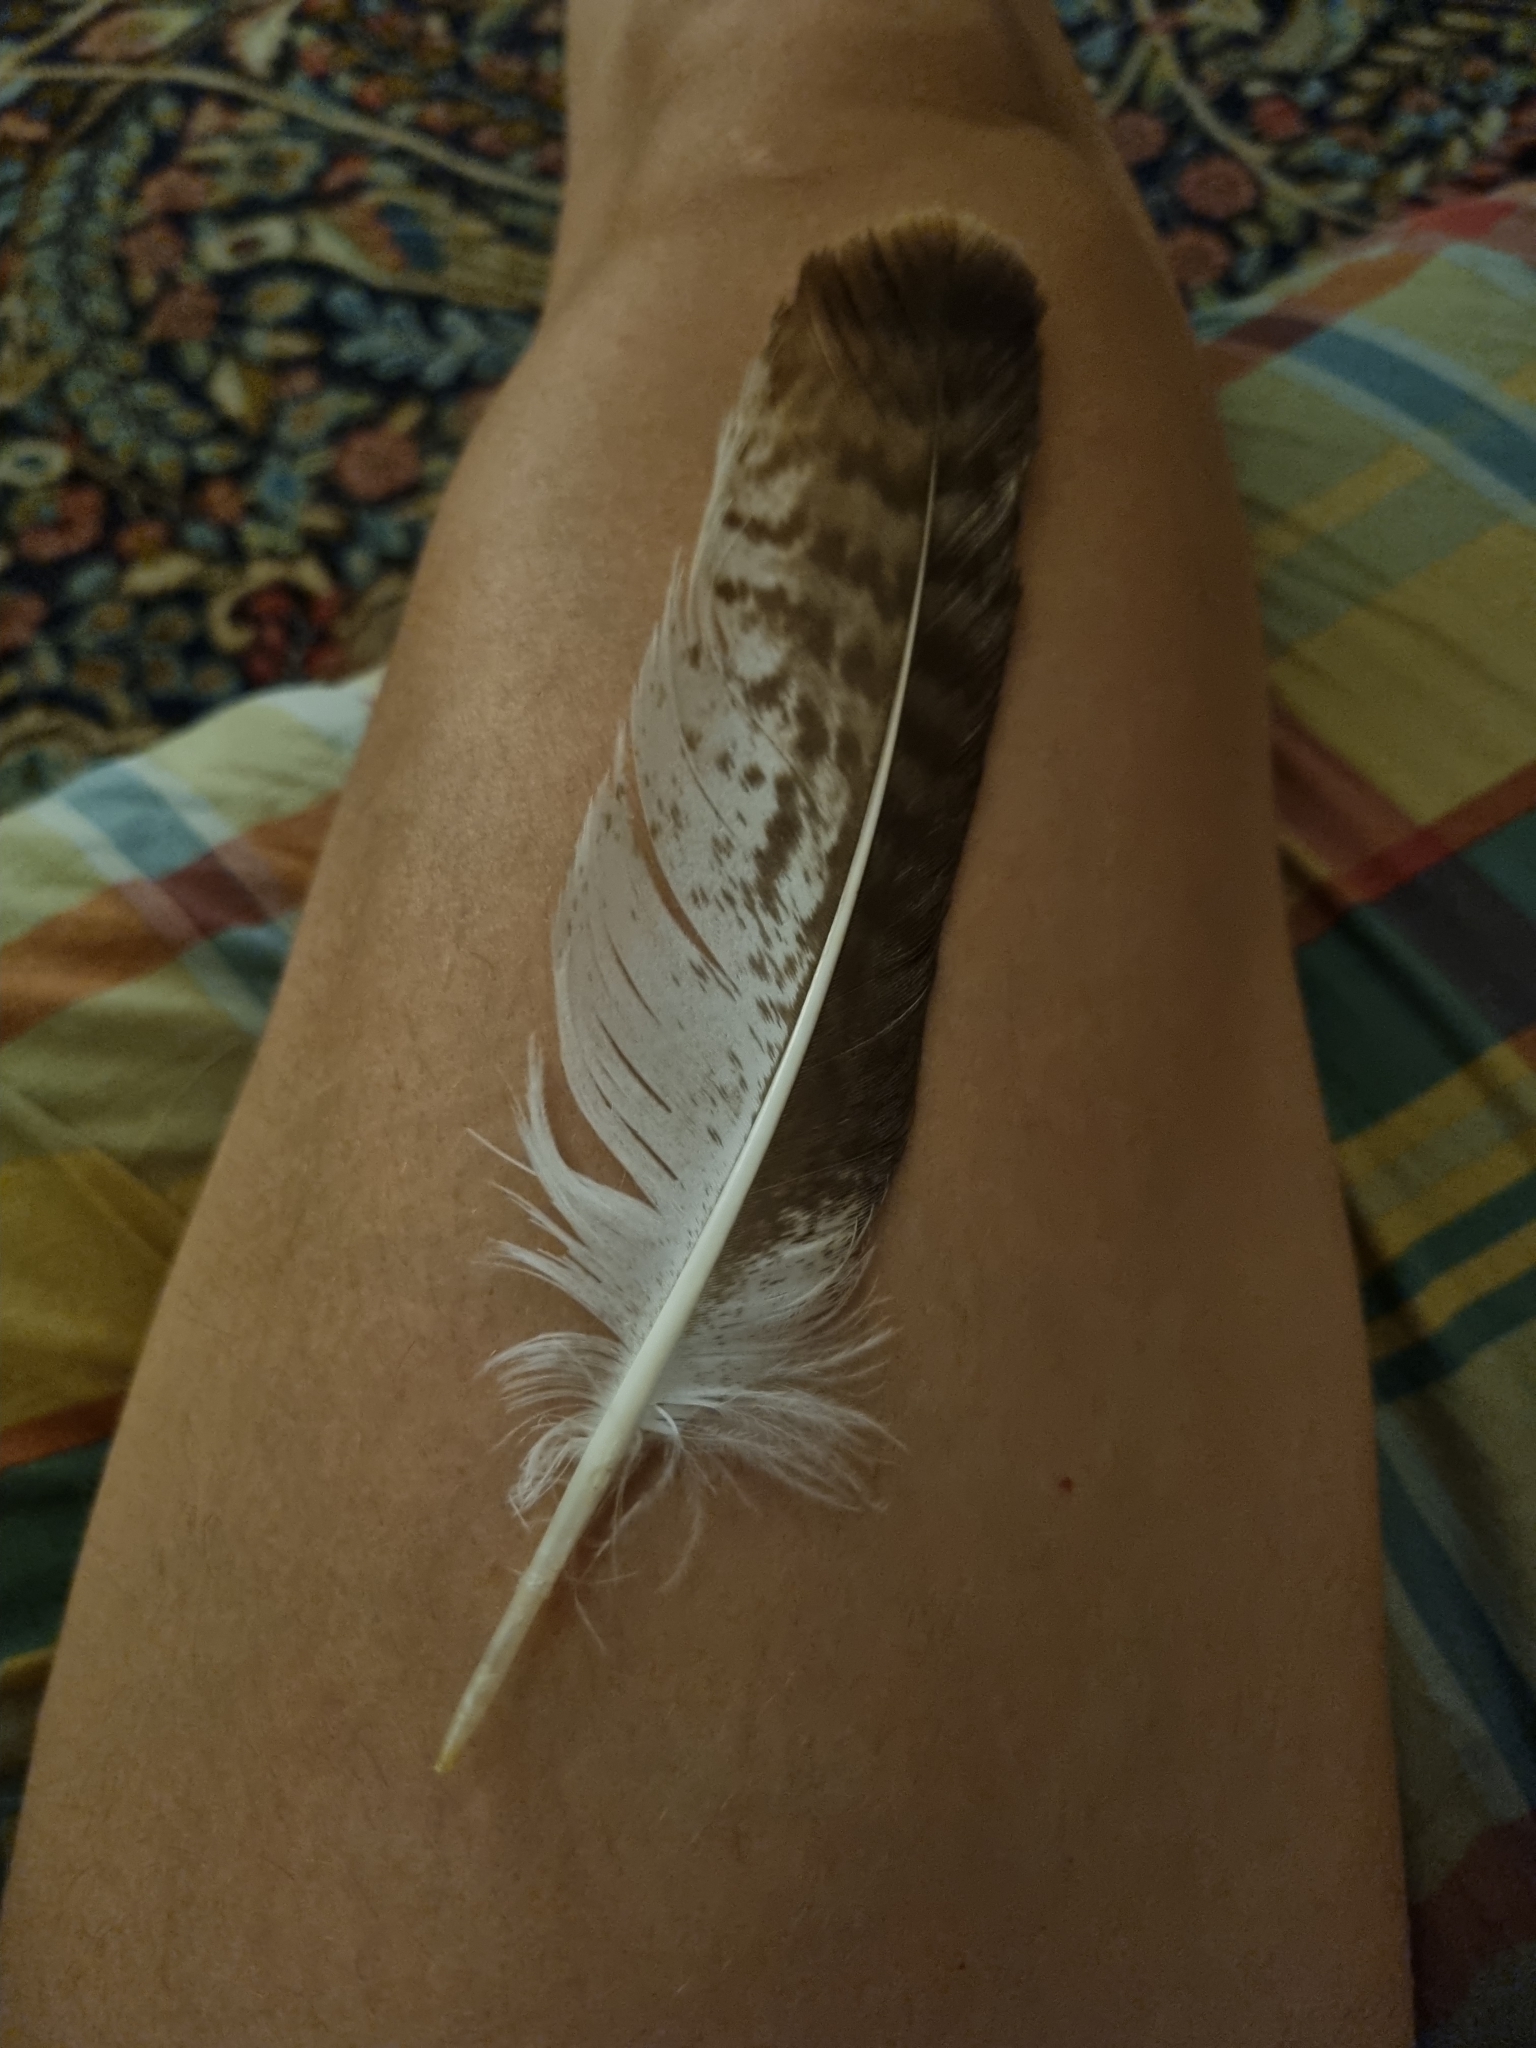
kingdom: Animalia
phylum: Chordata
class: Aves
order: Accipitriformes
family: Accipitridae
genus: Buteo
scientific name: Buteo buteo
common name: Common buzzard
